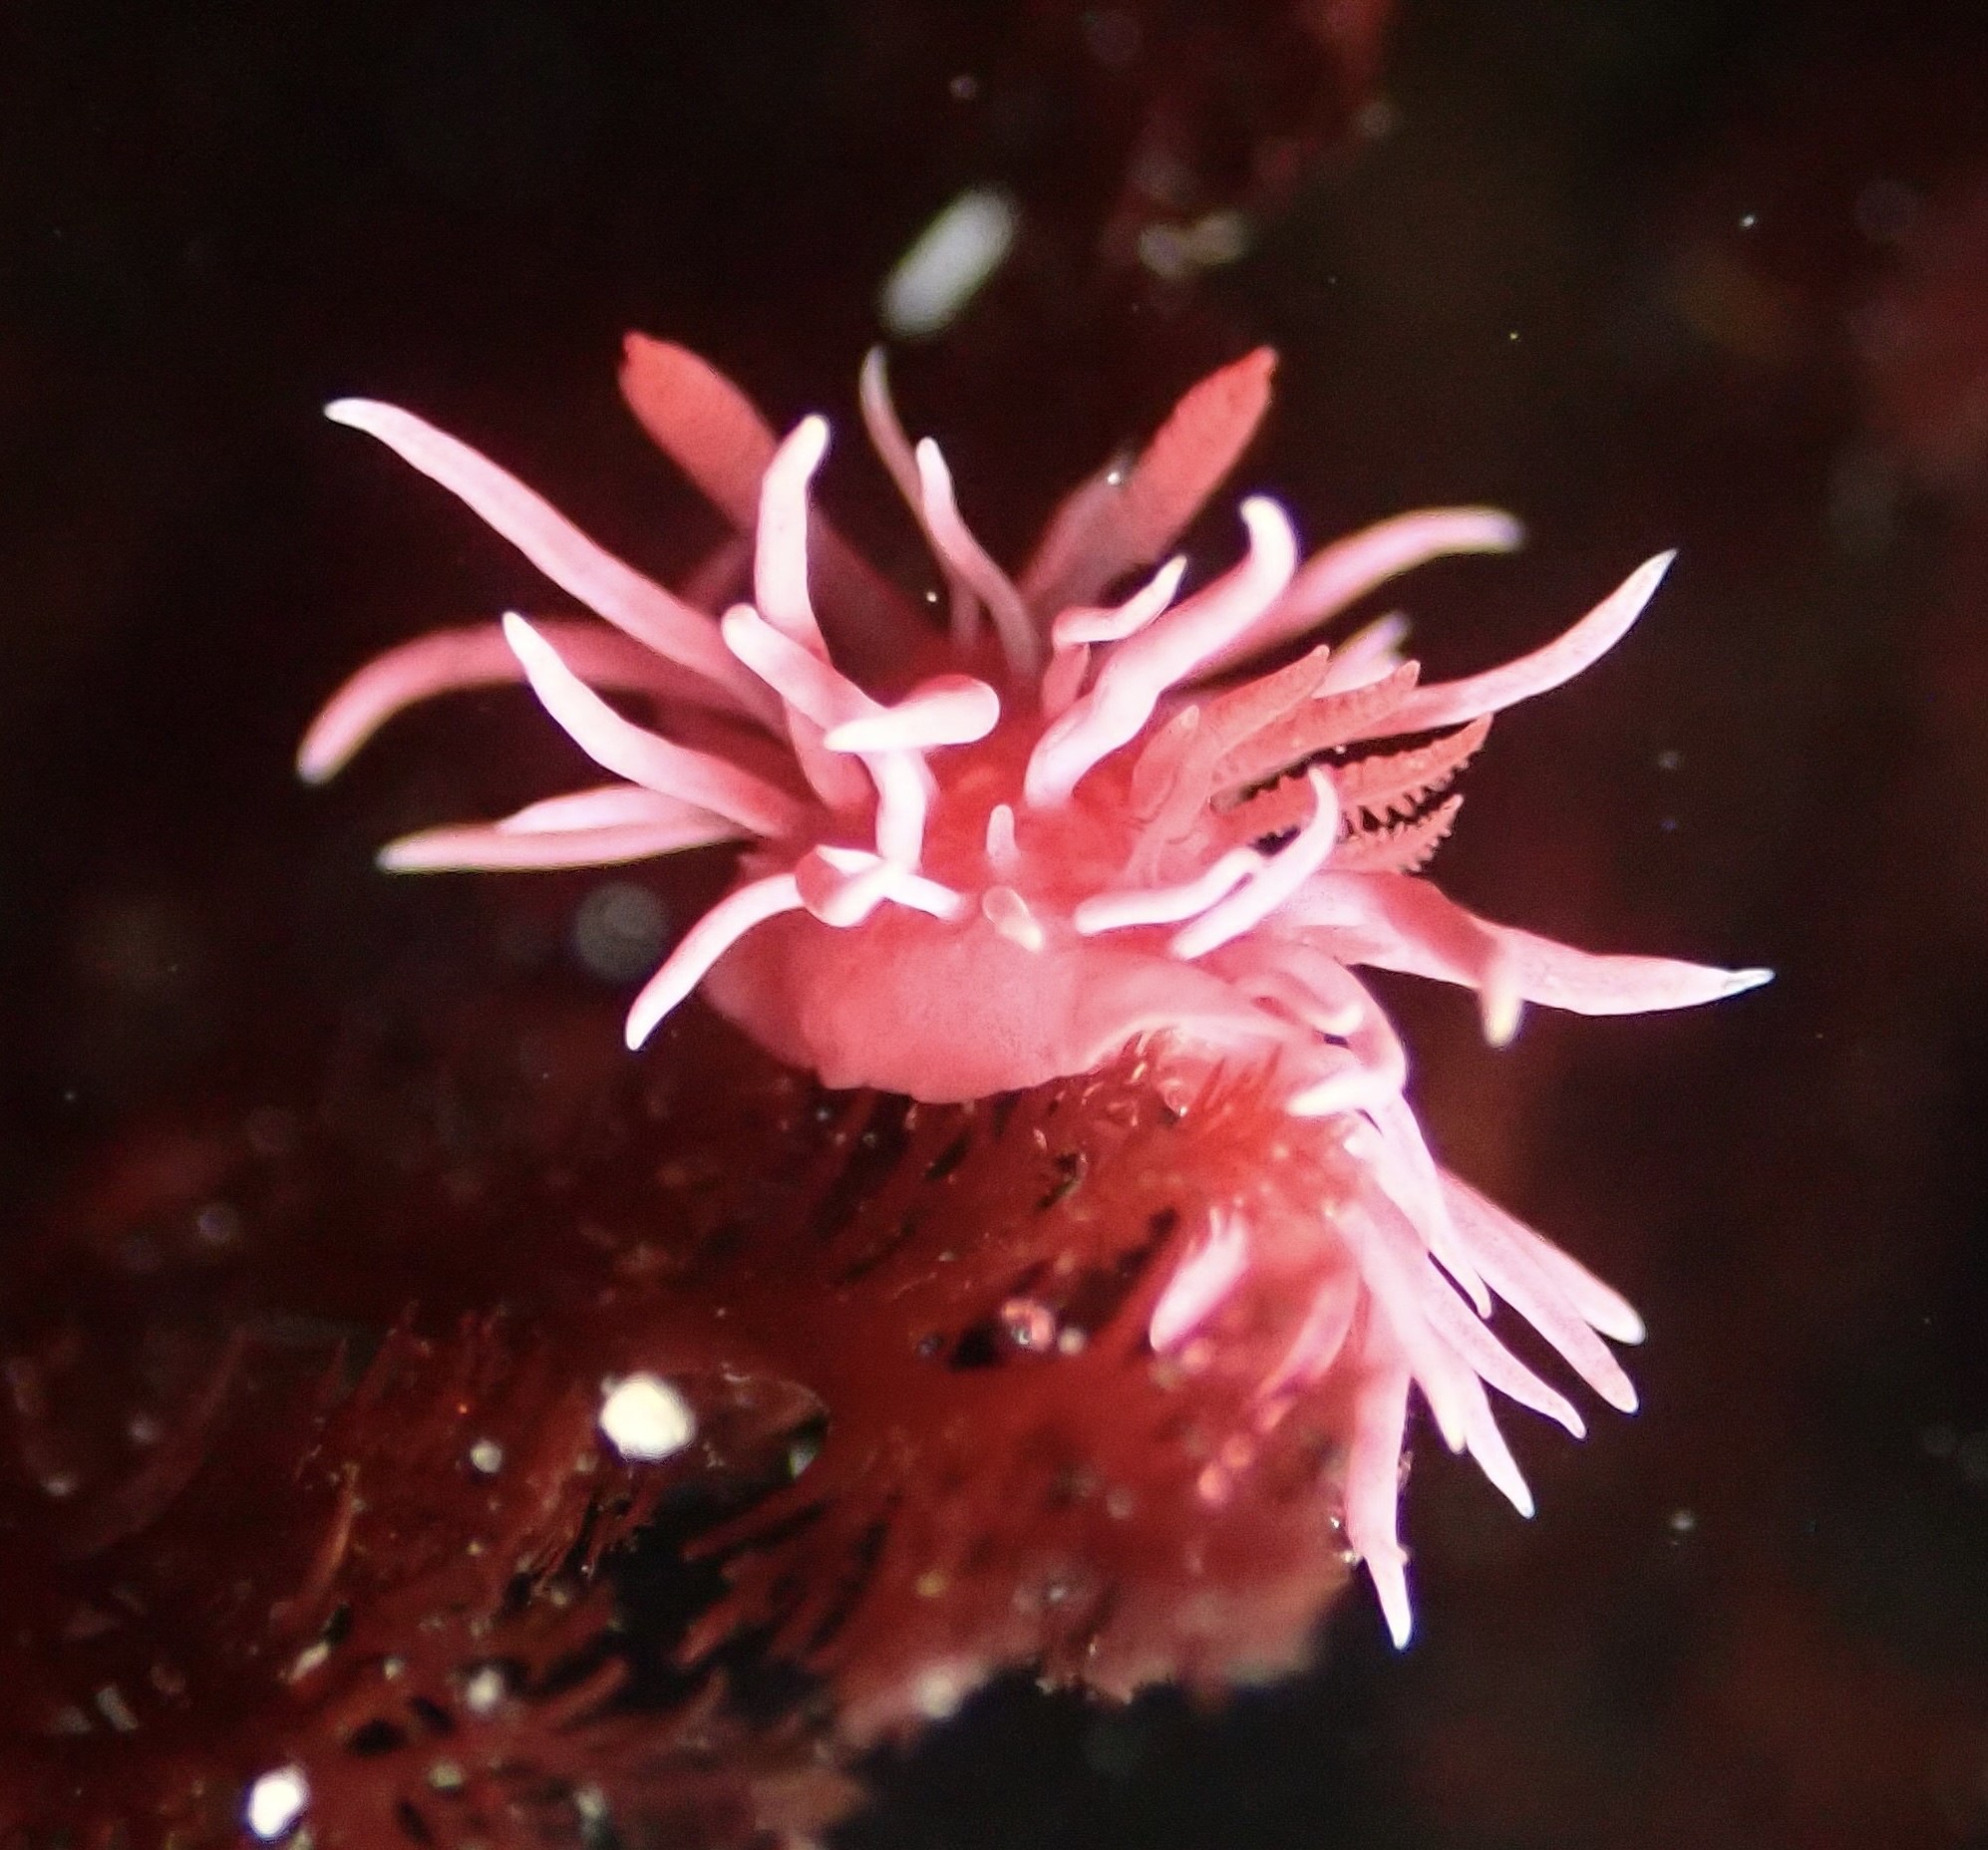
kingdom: Animalia
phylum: Mollusca
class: Gastropoda
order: Nudibranchia
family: Goniodorididae
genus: Okenia
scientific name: Okenia
